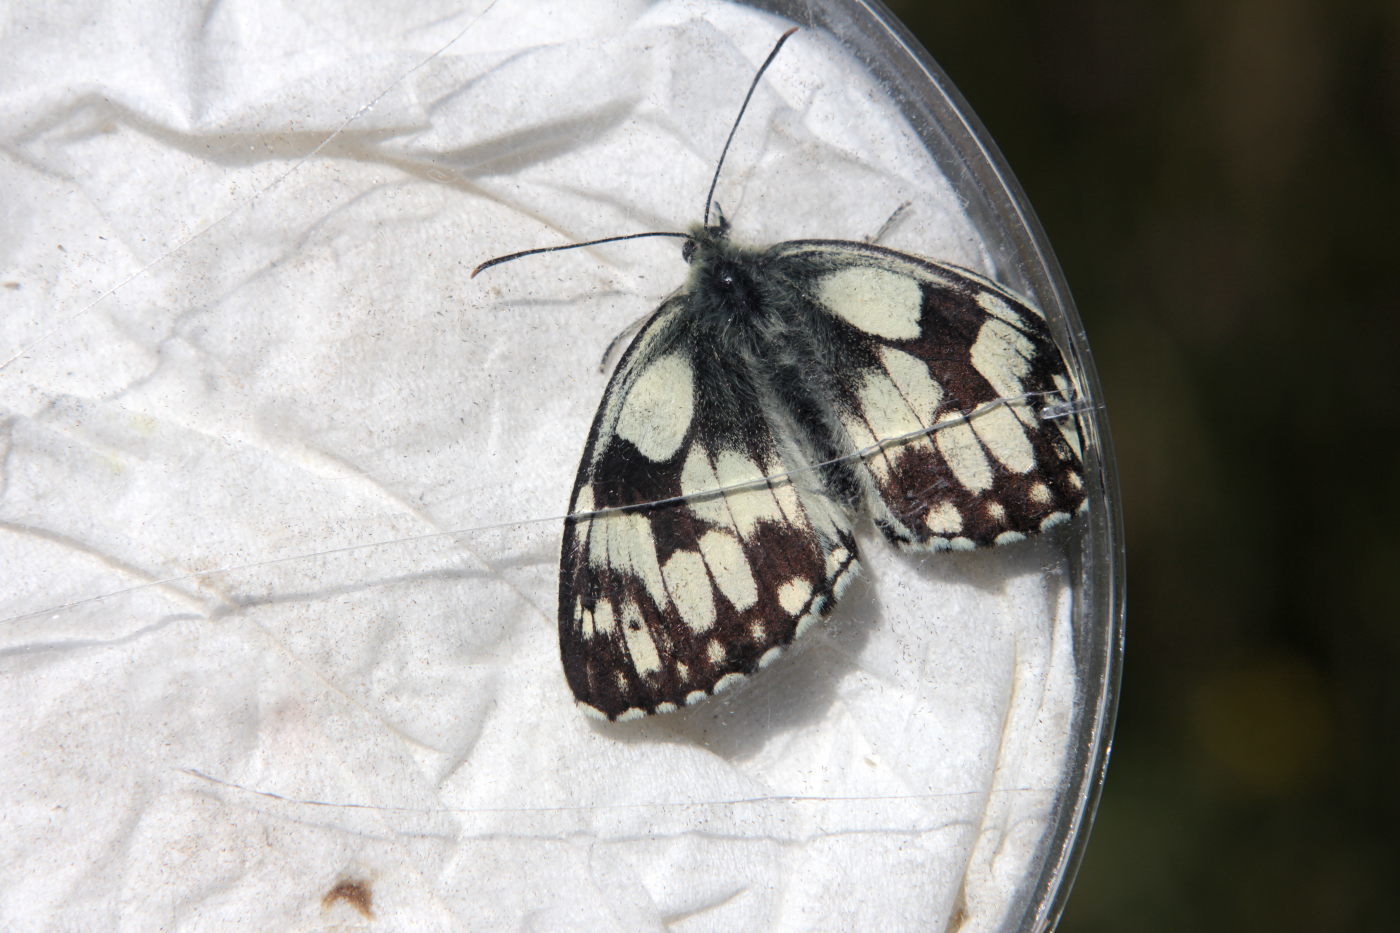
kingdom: Animalia
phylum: Arthropoda
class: Insecta
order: Lepidoptera
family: Nymphalidae
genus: Melanargia
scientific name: Melanargia galathea
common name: Marbled white
